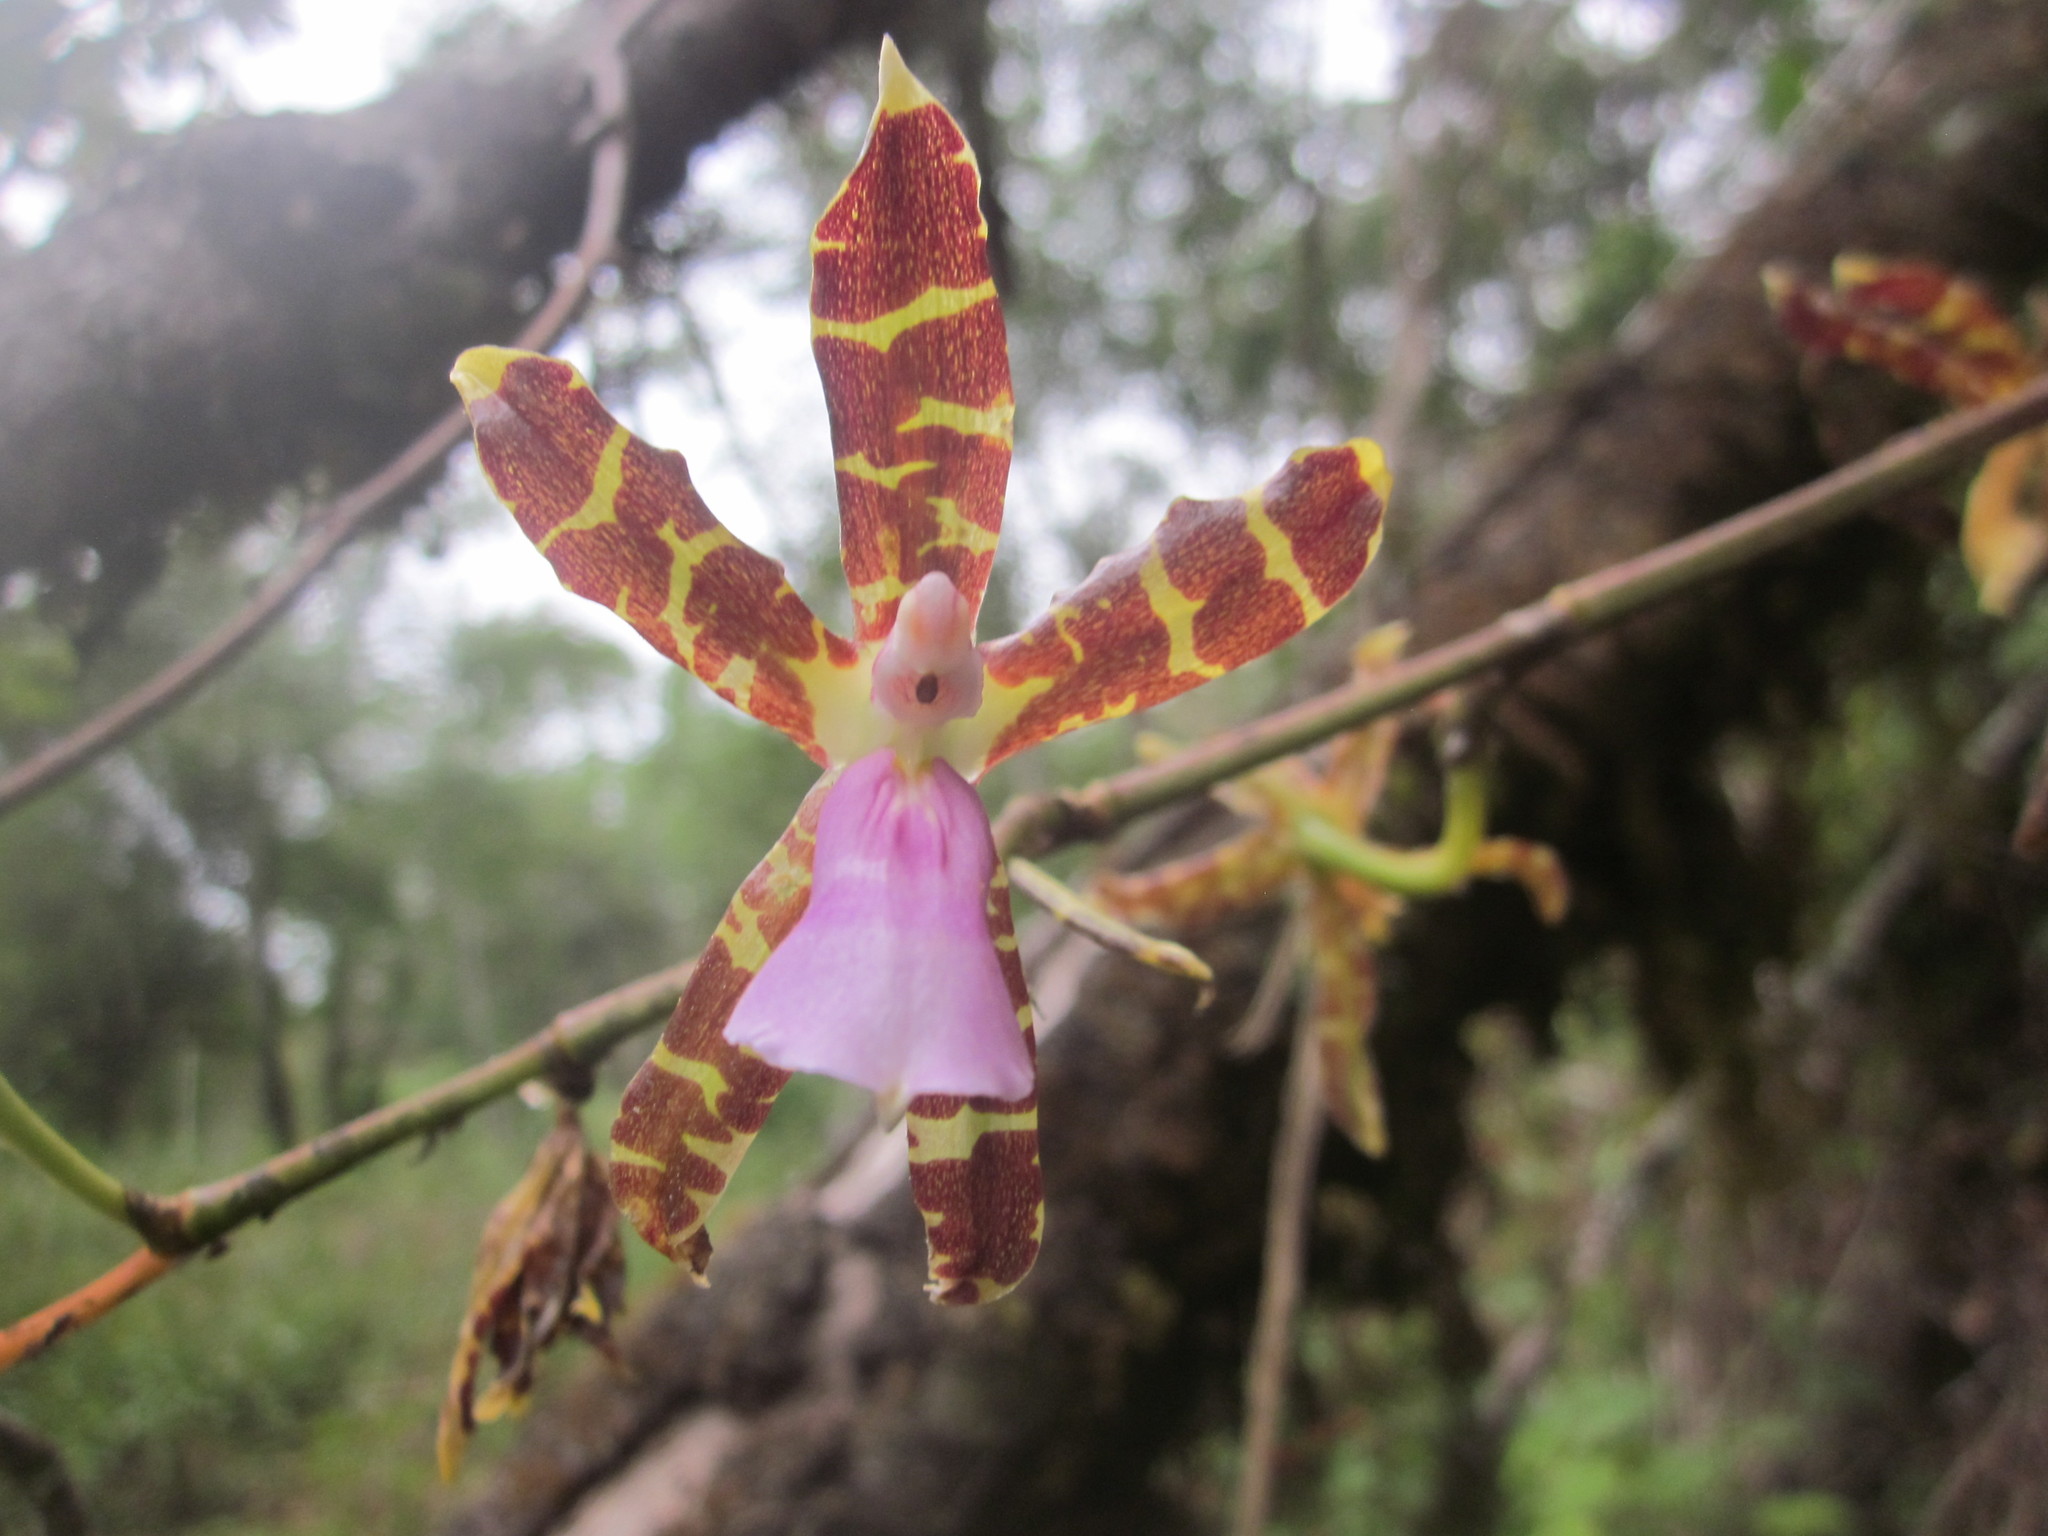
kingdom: Plantae
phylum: Tracheophyta
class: Liliopsida
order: Asparagales
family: Orchidaceae
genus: Oncidium
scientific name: Oncidium laeve
